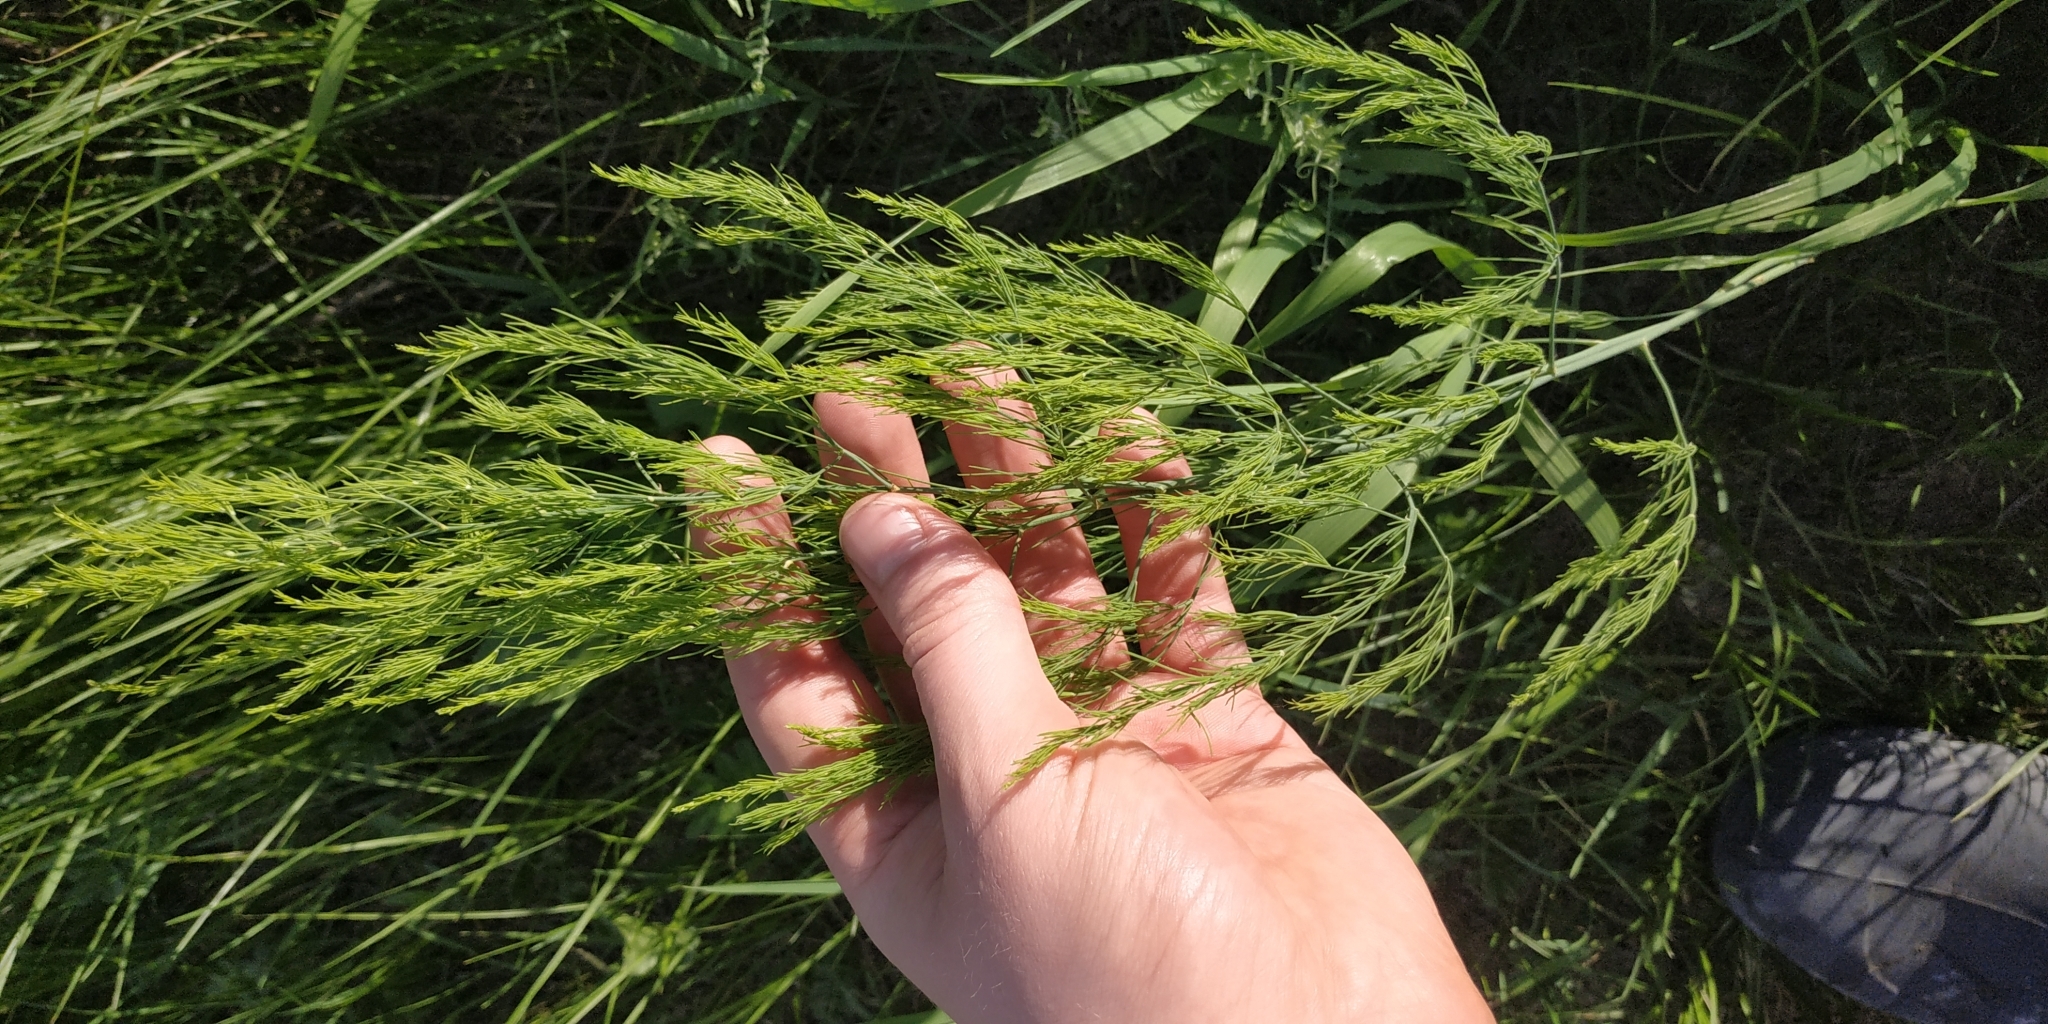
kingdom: Plantae
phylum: Tracheophyta
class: Liliopsida
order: Asparagales
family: Asparagaceae
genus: Asparagus
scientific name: Asparagus officinalis
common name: Garden asparagus
